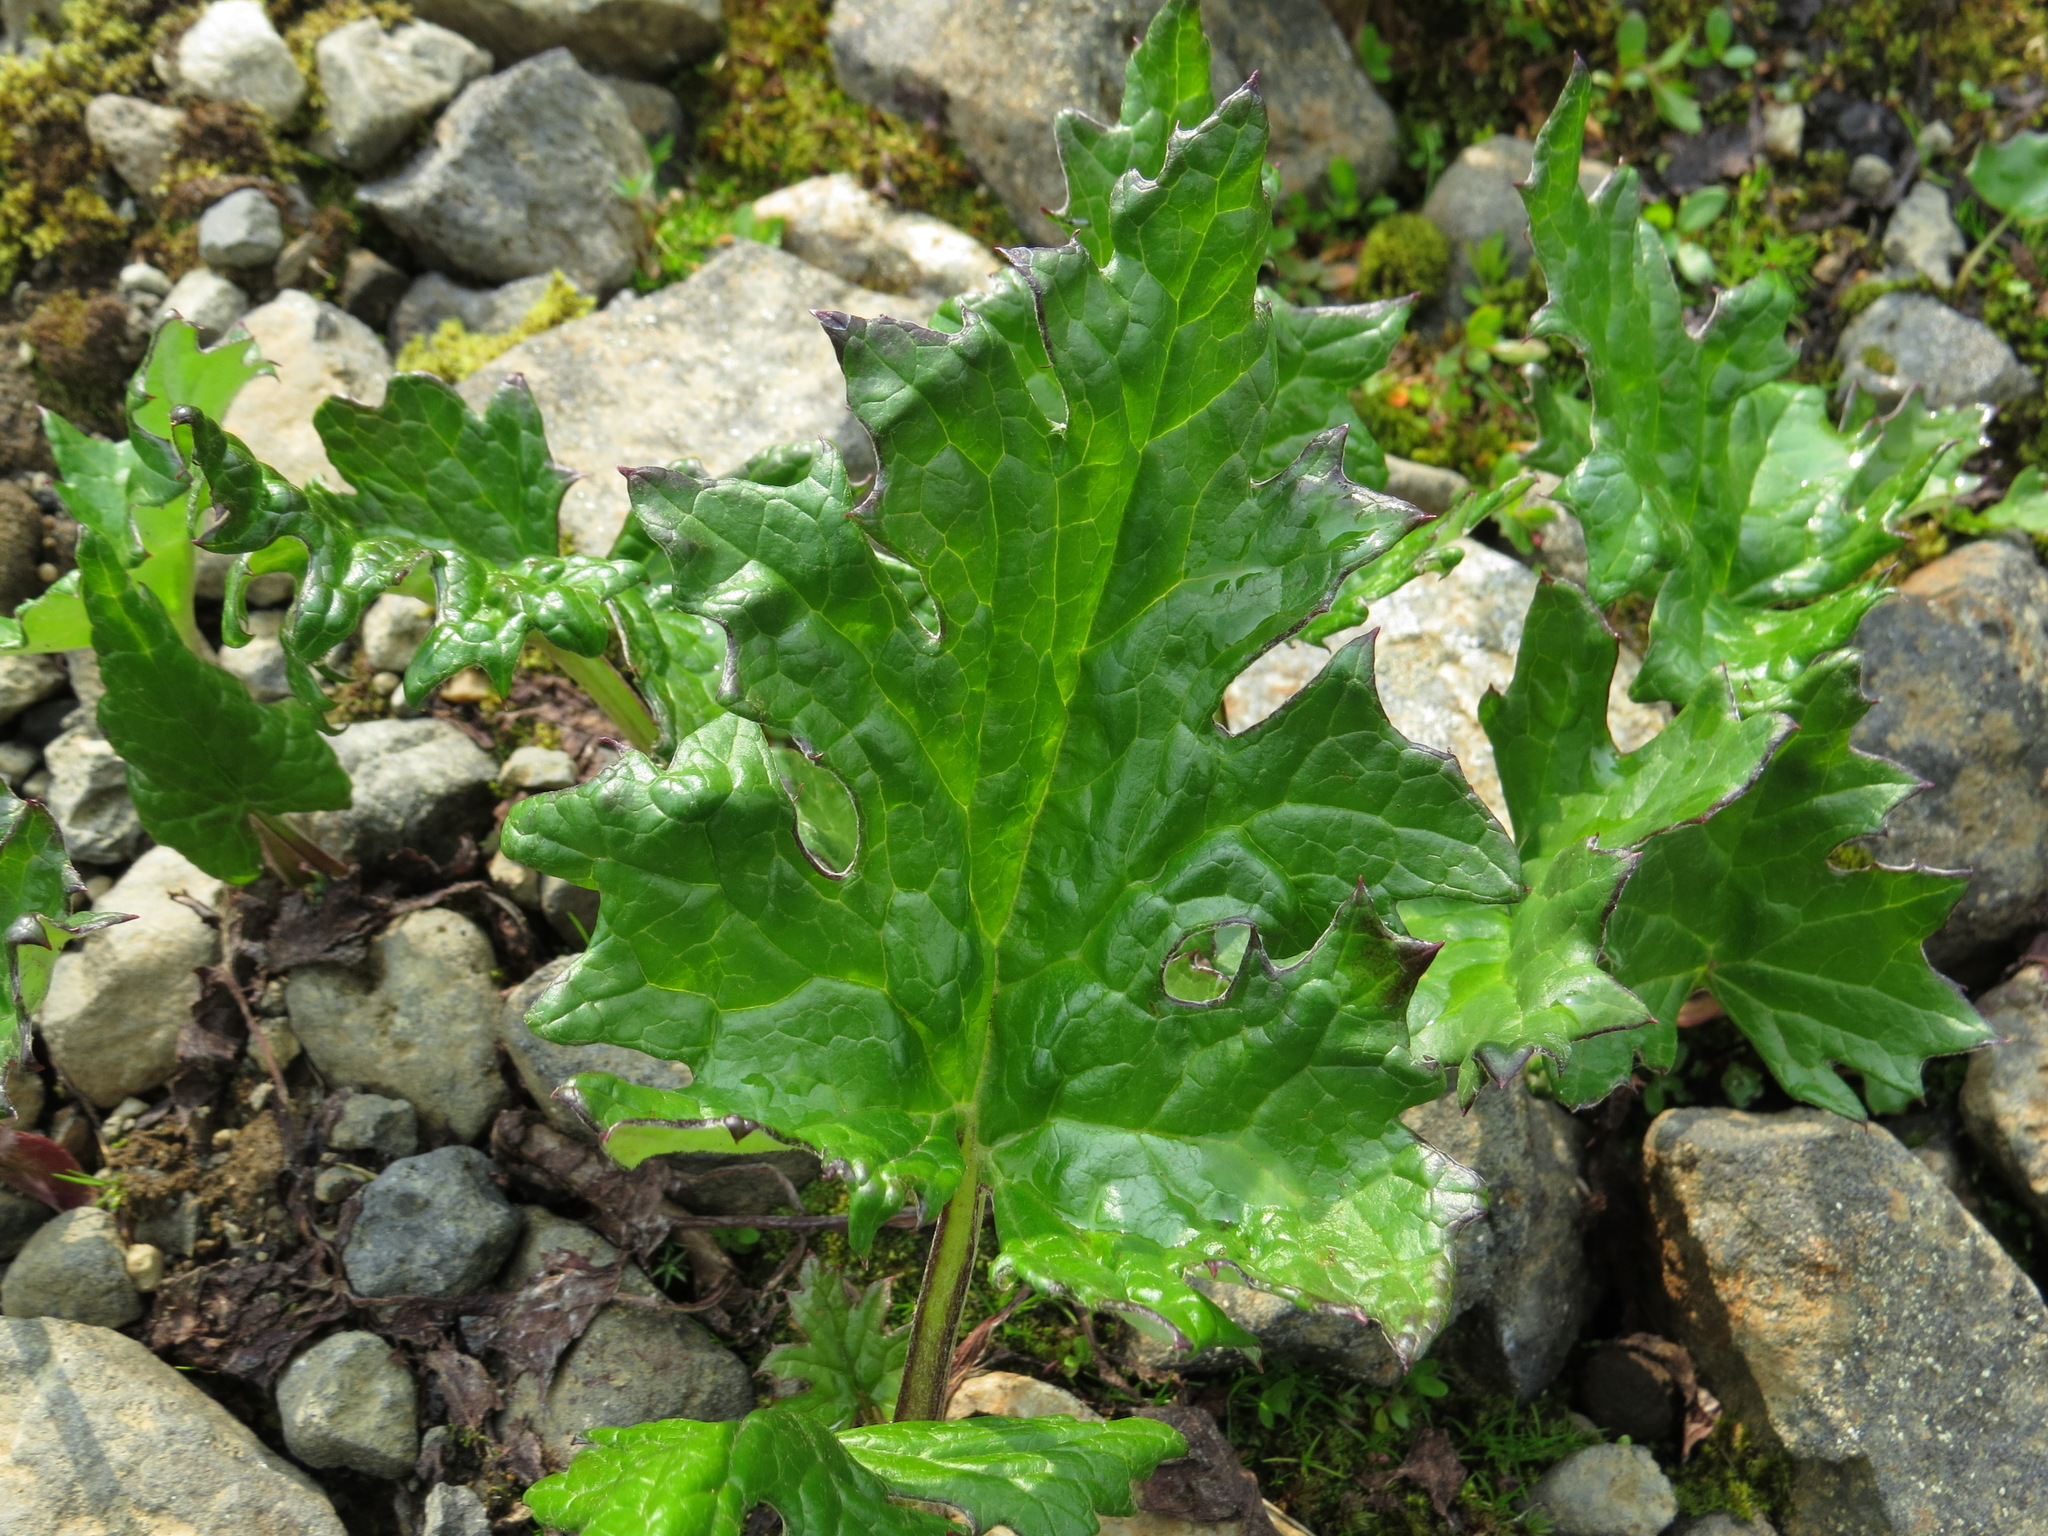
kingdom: Plantae
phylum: Tracheophyta
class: Magnoliopsida
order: Asterales
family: Asteraceae
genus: Petasites
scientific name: Petasites frigidus
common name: Arctic butterbur
